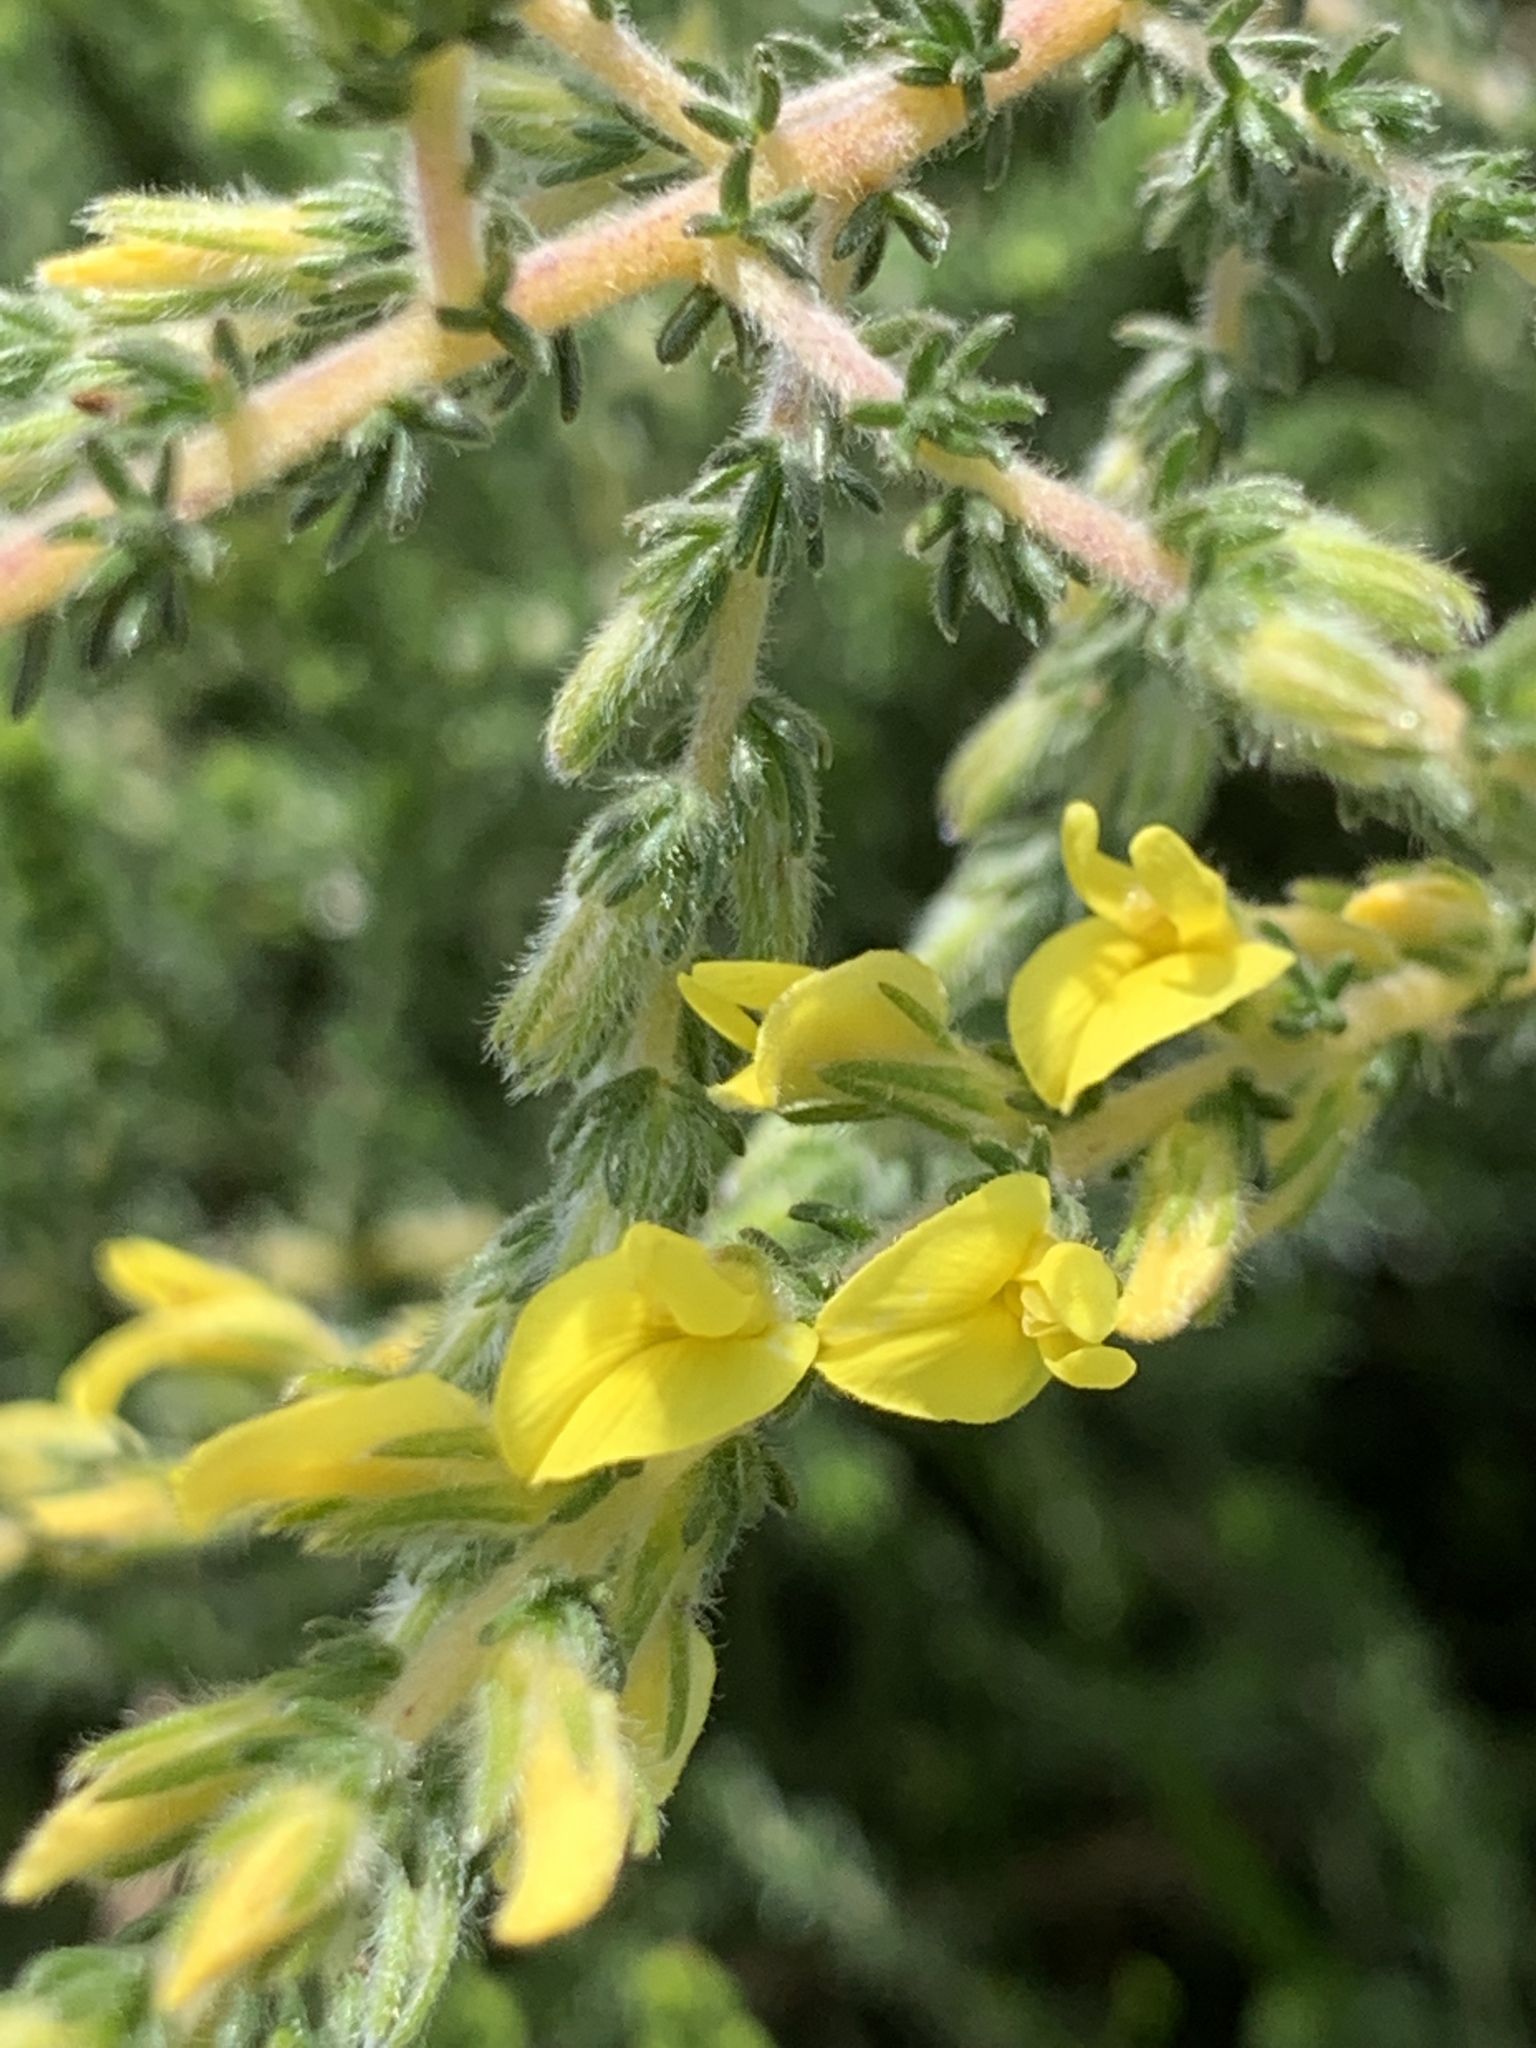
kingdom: Plantae
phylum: Tracheophyta
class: Magnoliopsida
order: Fabales
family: Fabaceae
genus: Aspalathus
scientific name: Aspalathus ericifolia
